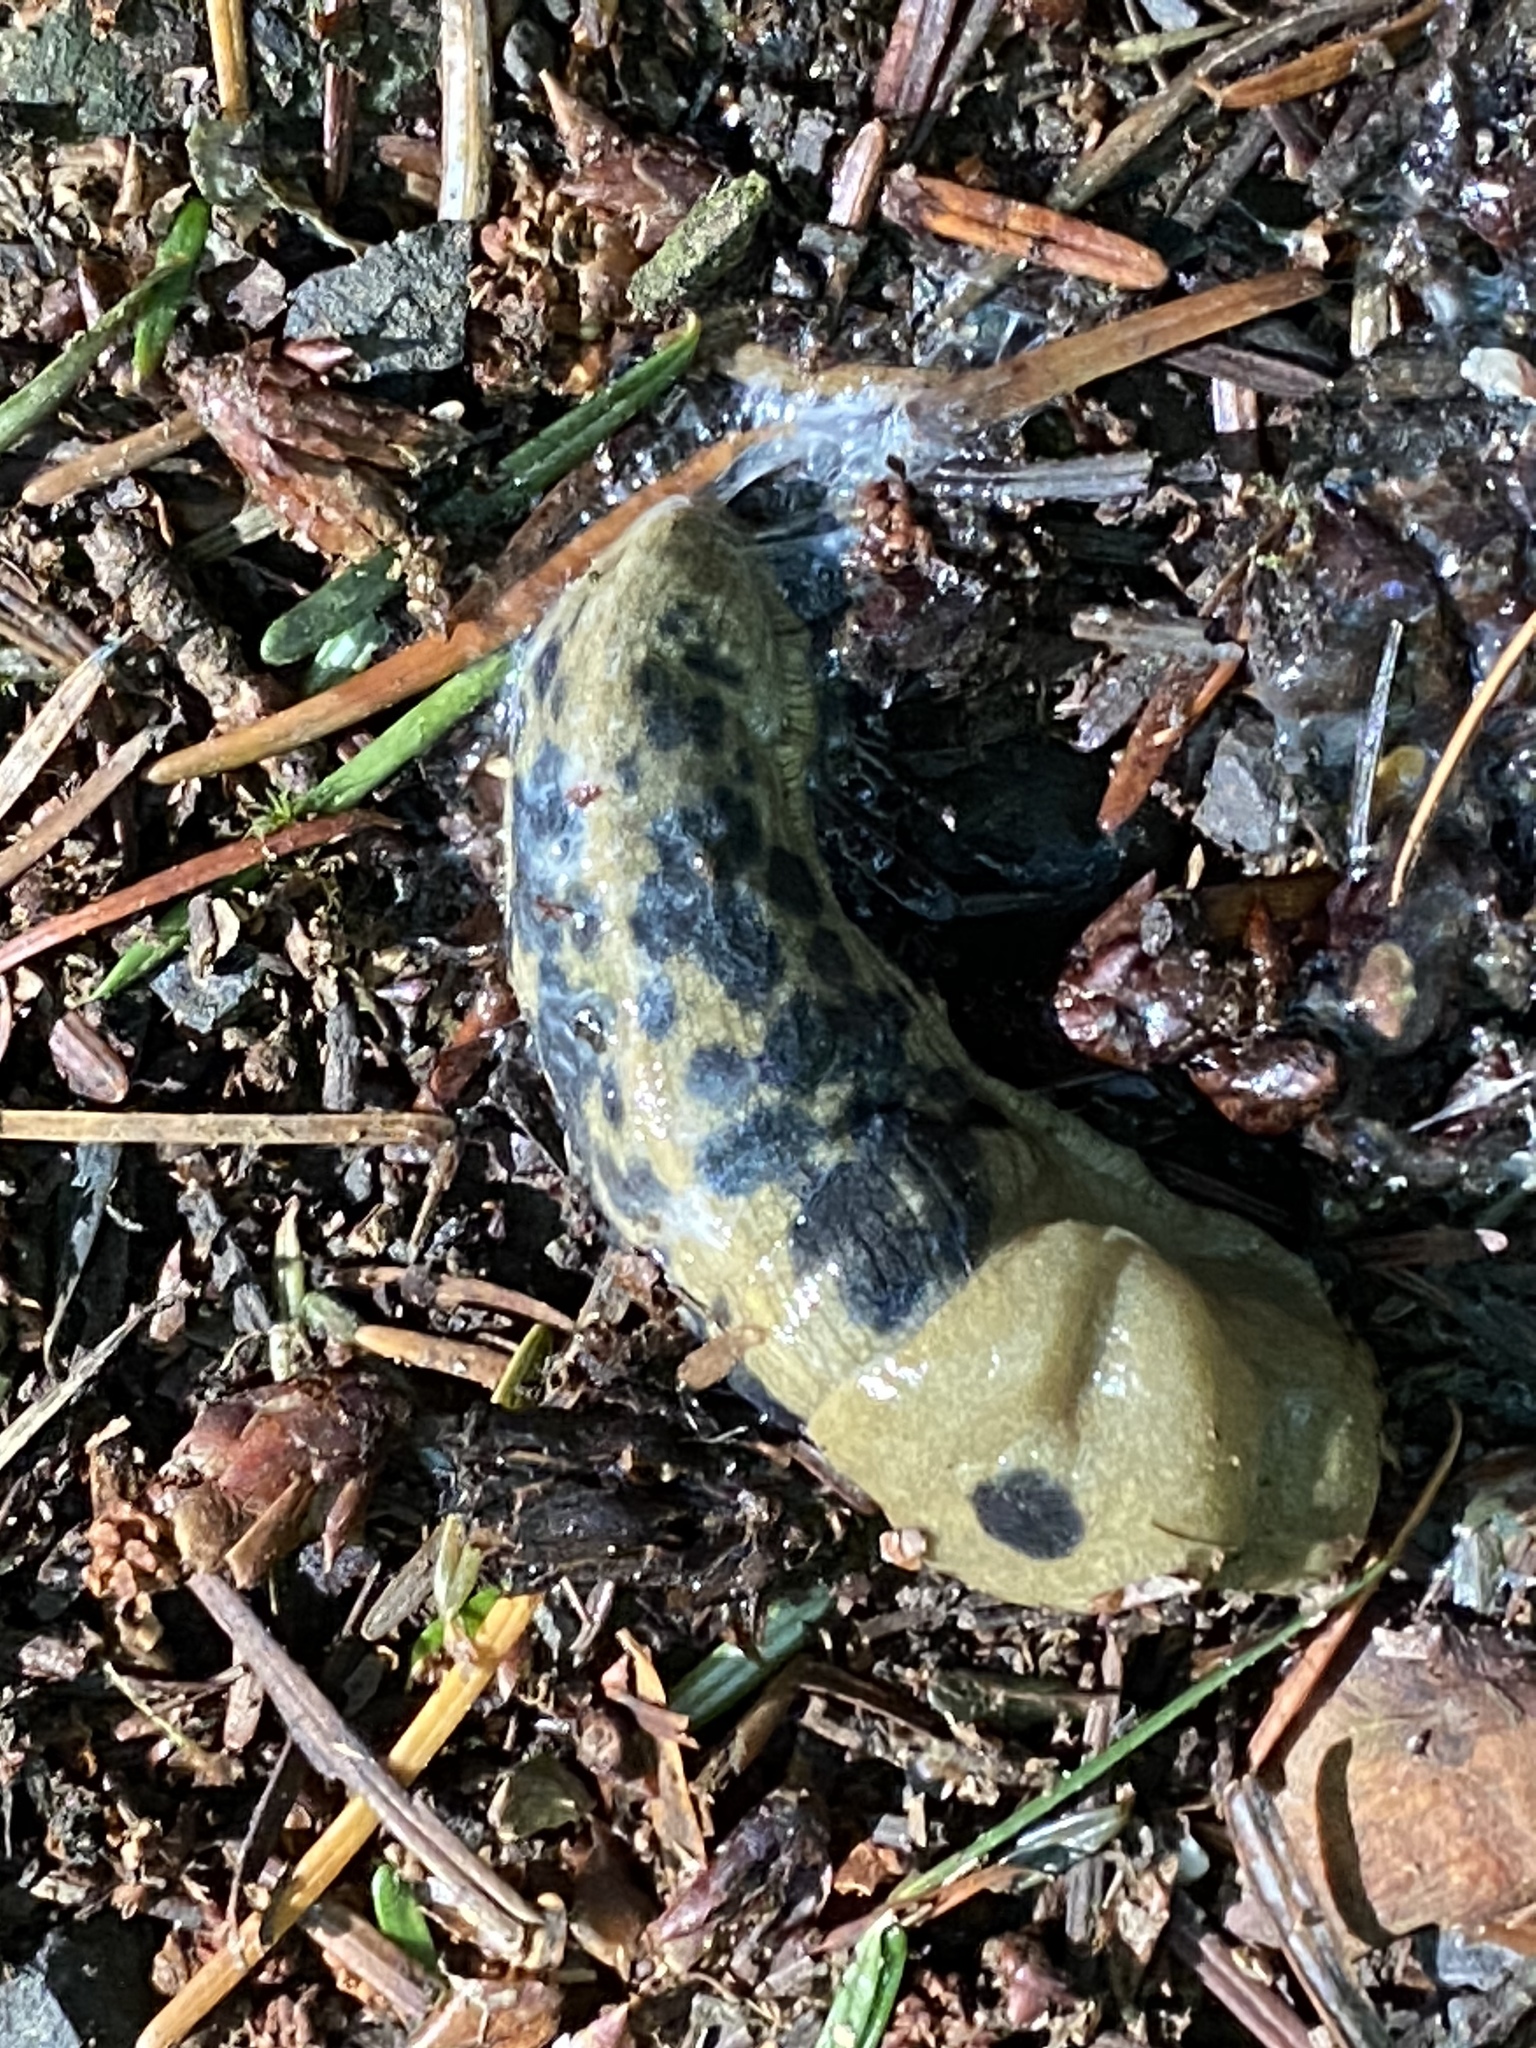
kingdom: Animalia
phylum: Mollusca
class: Gastropoda
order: Stylommatophora
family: Ariolimacidae
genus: Ariolimax
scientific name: Ariolimax columbianus
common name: Pacific banana slug
